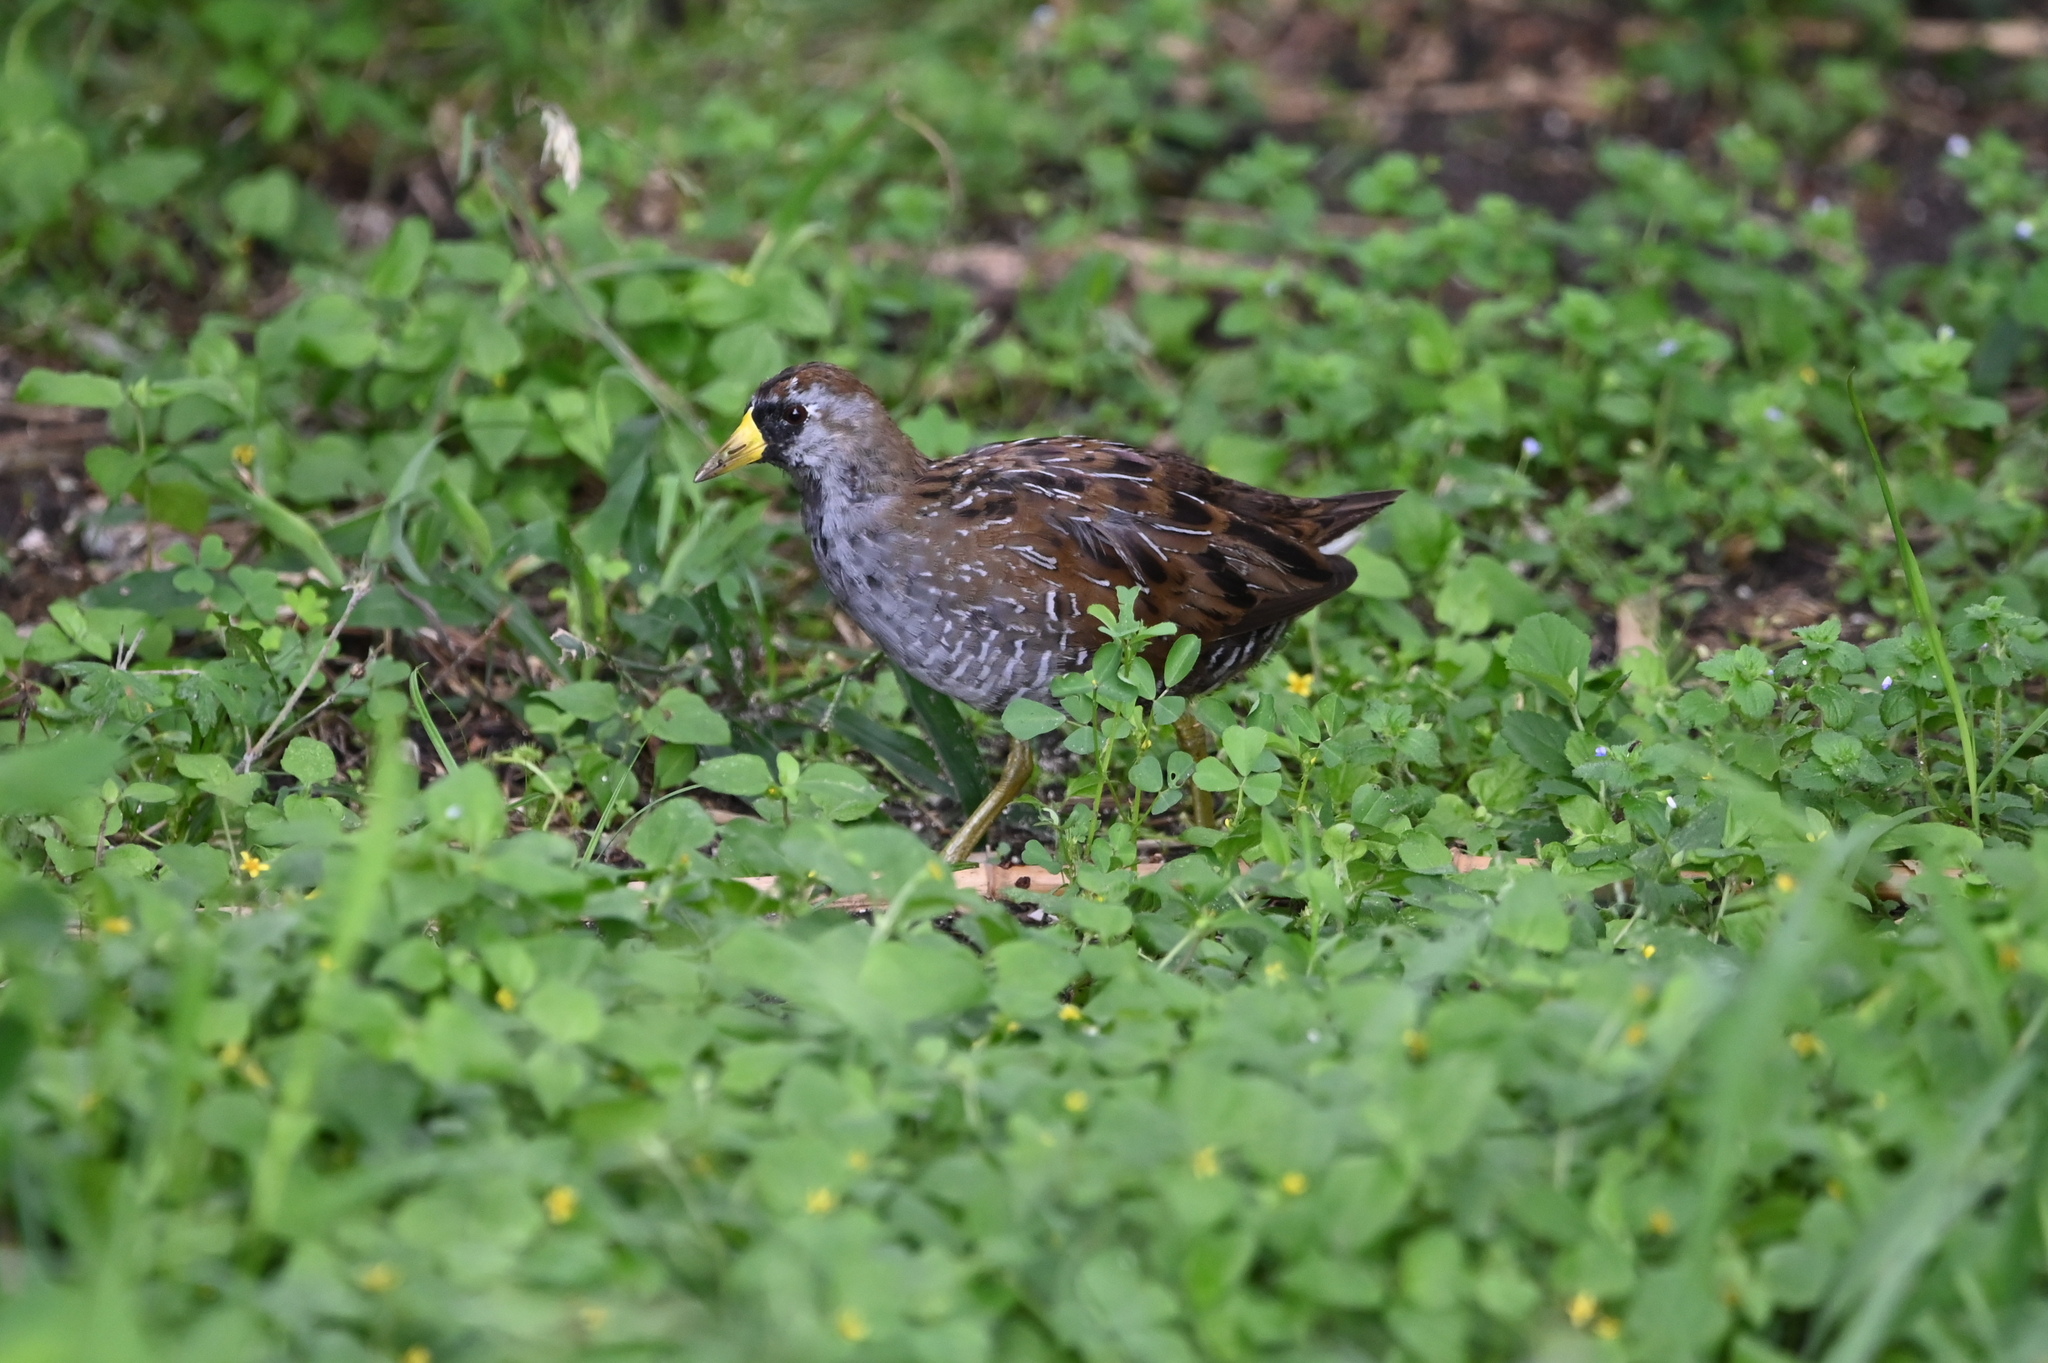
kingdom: Animalia
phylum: Chordata
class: Aves
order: Gruiformes
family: Rallidae
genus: Porzana
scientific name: Porzana carolina
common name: Sora
